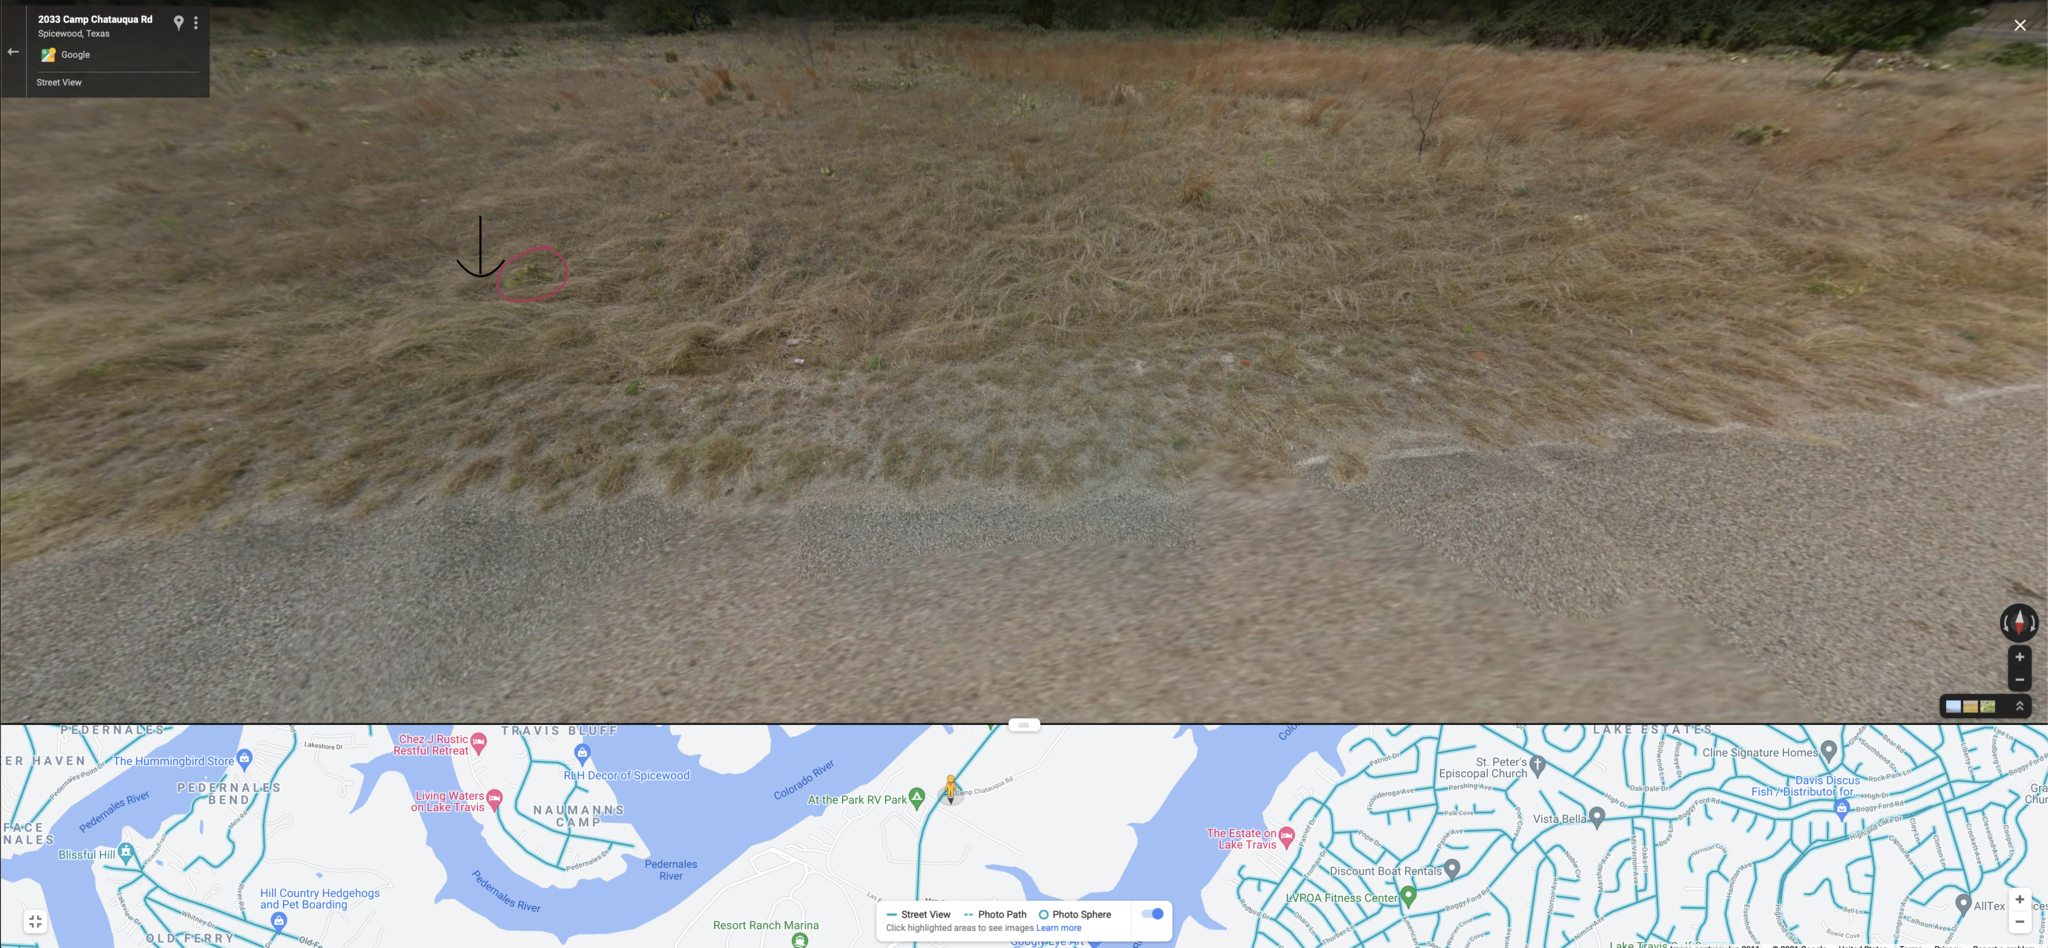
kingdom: Plantae
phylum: Tracheophyta
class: Magnoliopsida
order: Gentianales
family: Apocynaceae
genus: Matelea
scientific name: Matelea cynanchoides
